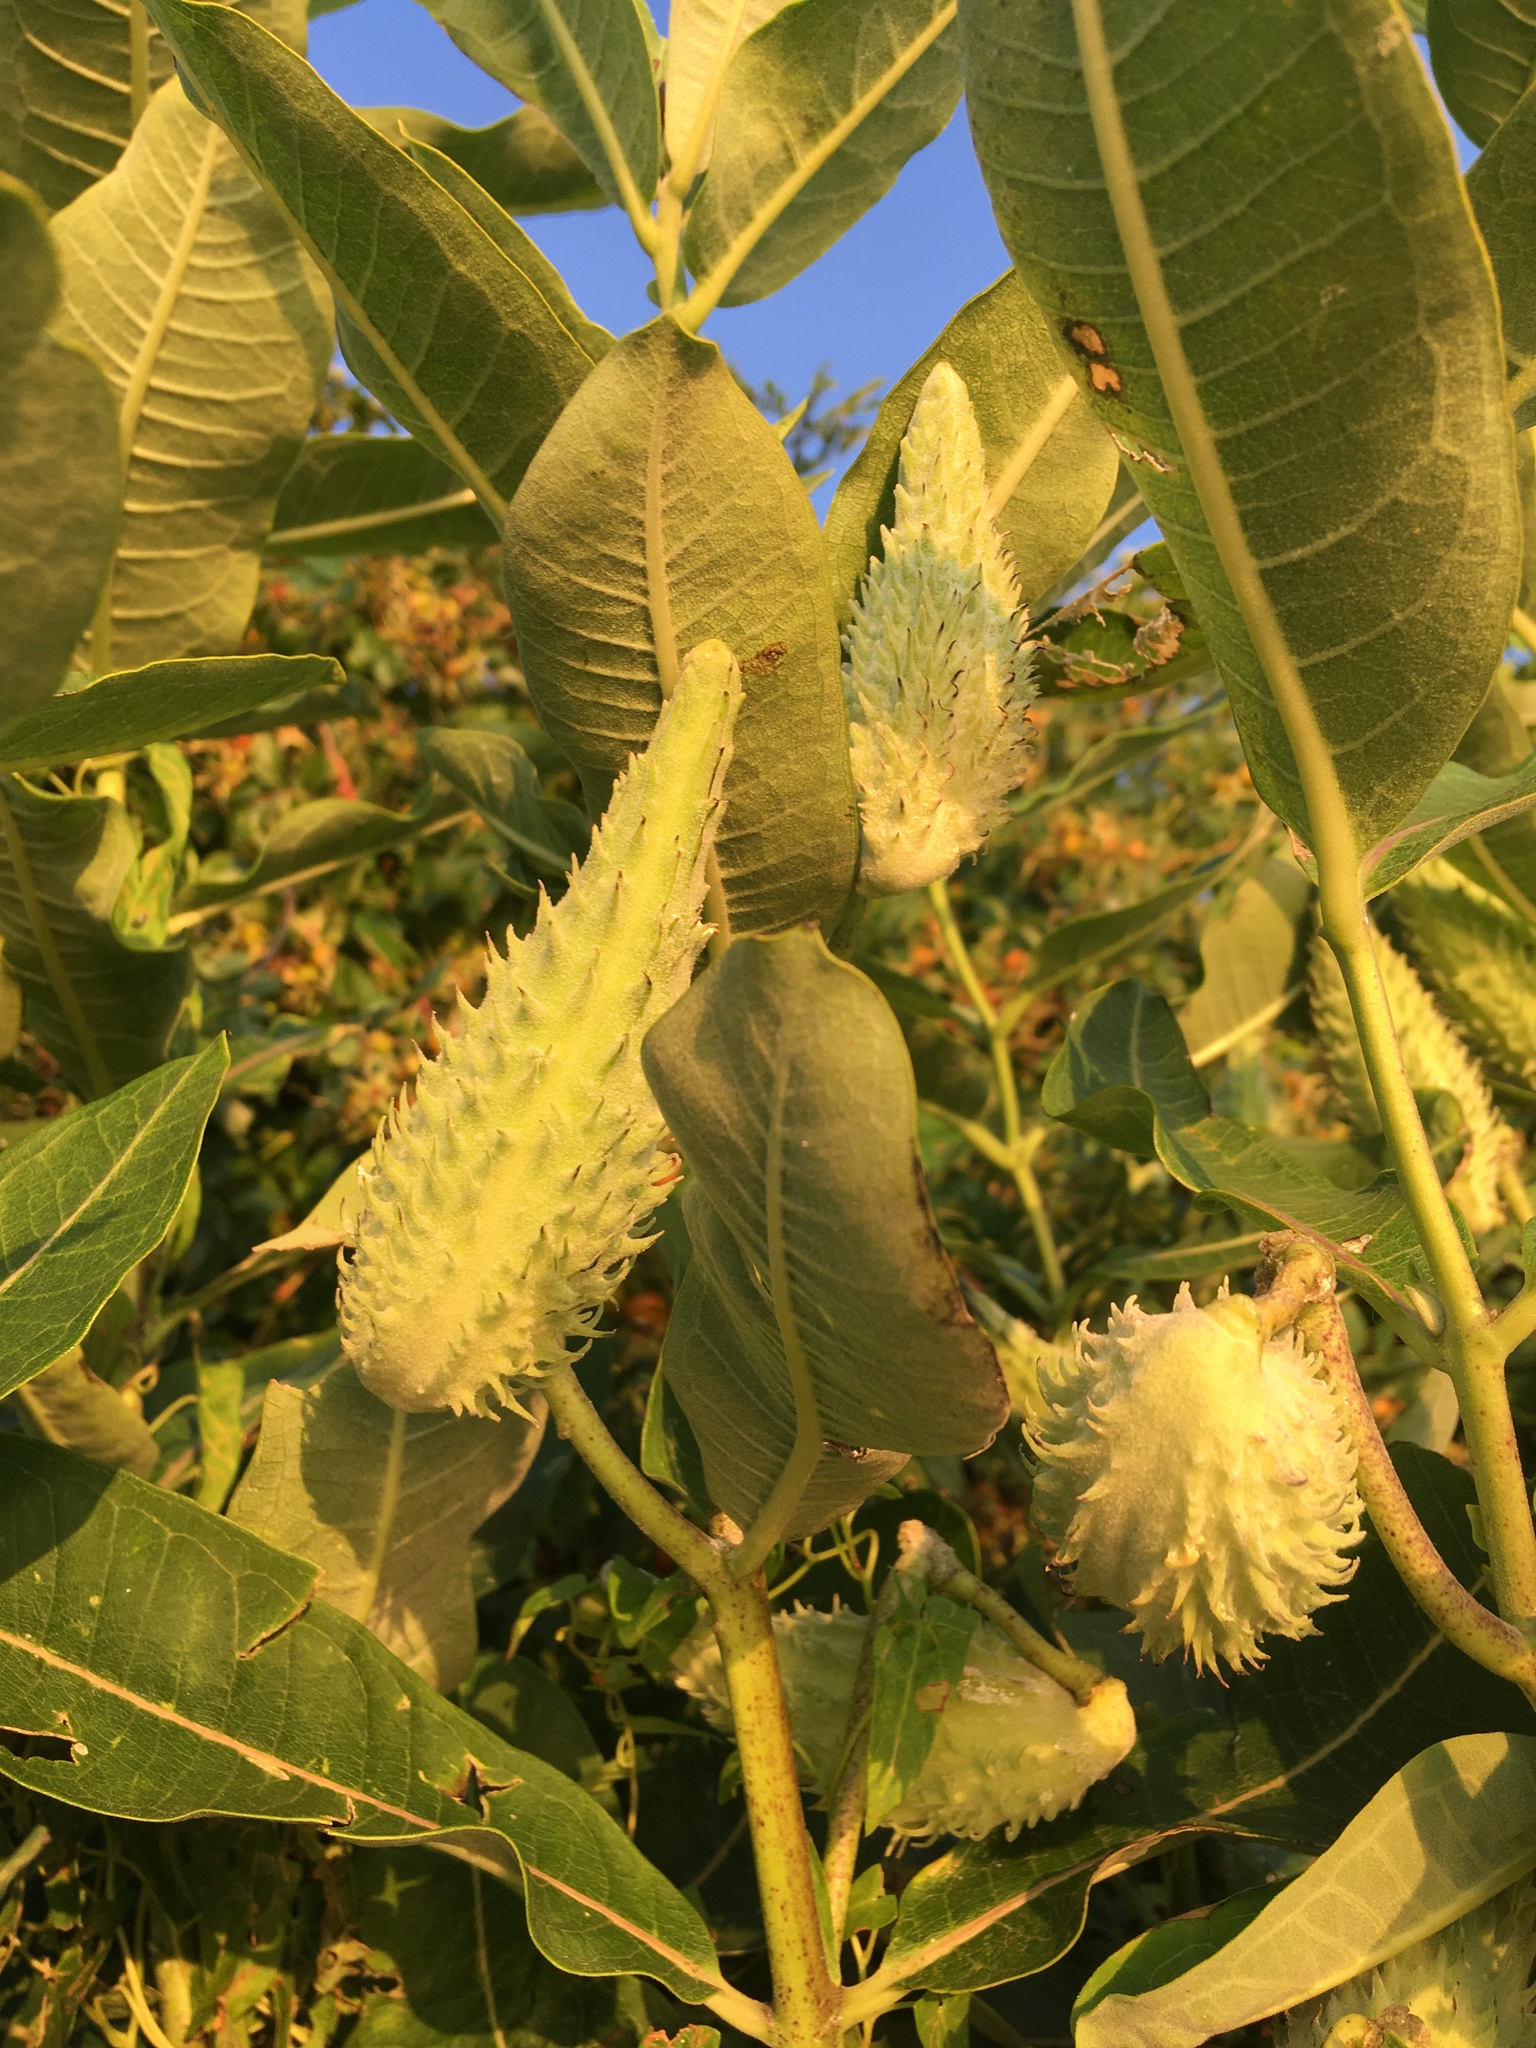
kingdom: Plantae
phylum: Tracheophyta
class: Magnoliopsida
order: Gentianales
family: Apocynaceae
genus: Asclepias
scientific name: Asclepias syriaca
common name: Common milkweed
